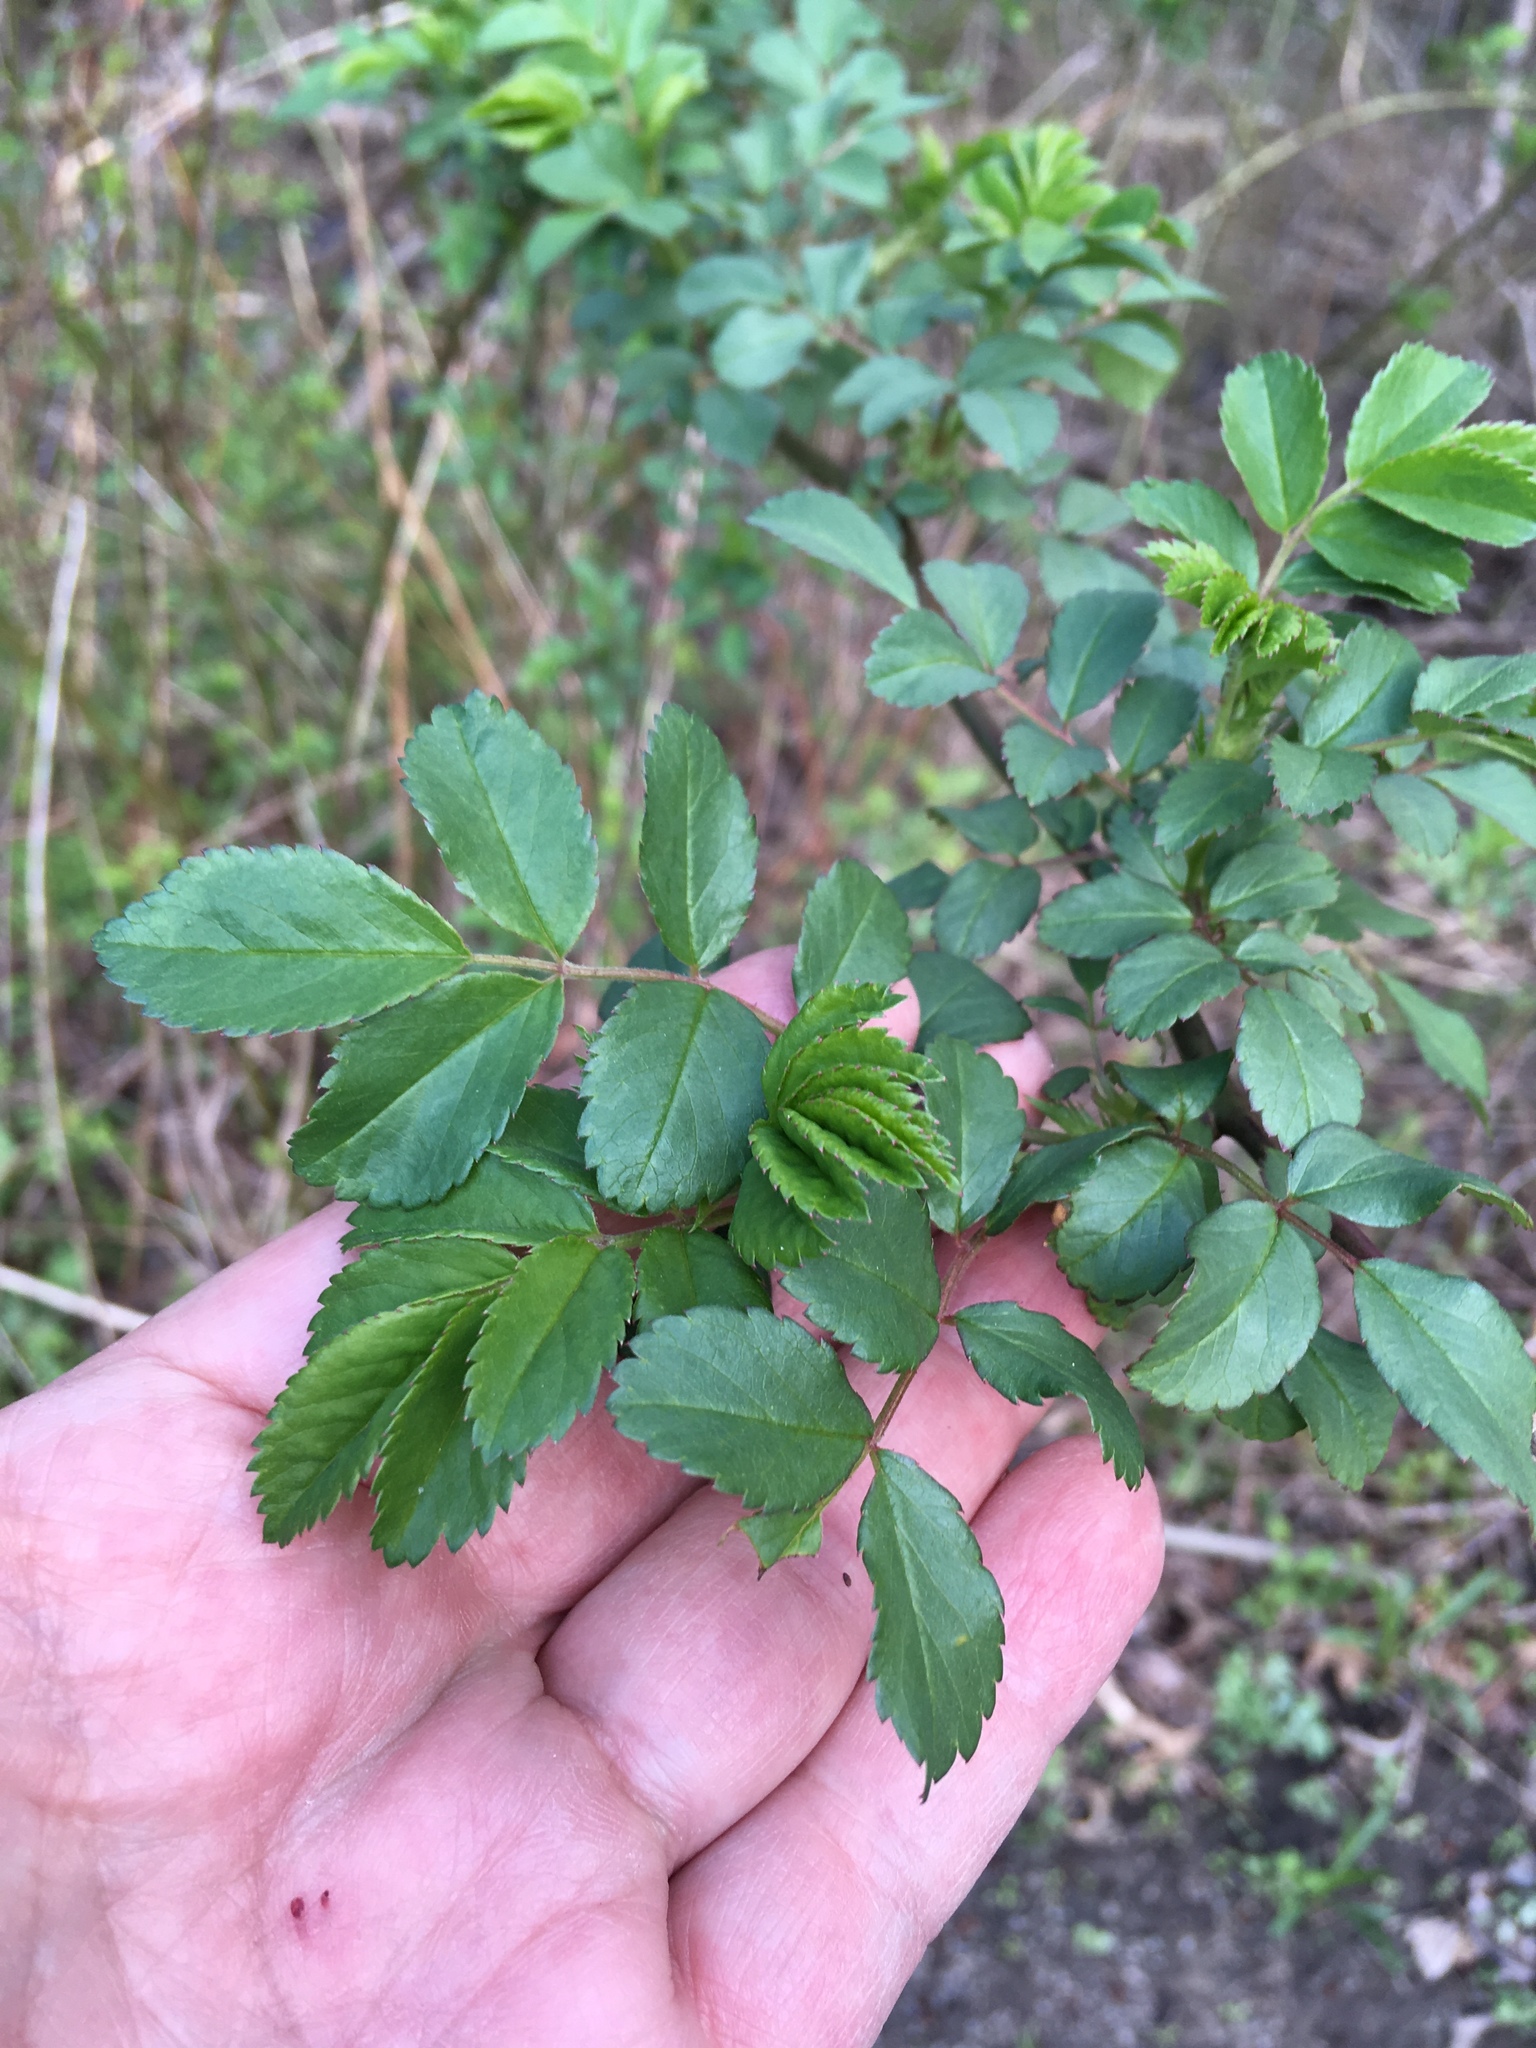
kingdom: Plantae
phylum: Tracheophyta
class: Magnoliopsida
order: Rosales
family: Rosaceae
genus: Rosa
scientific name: Rosa
